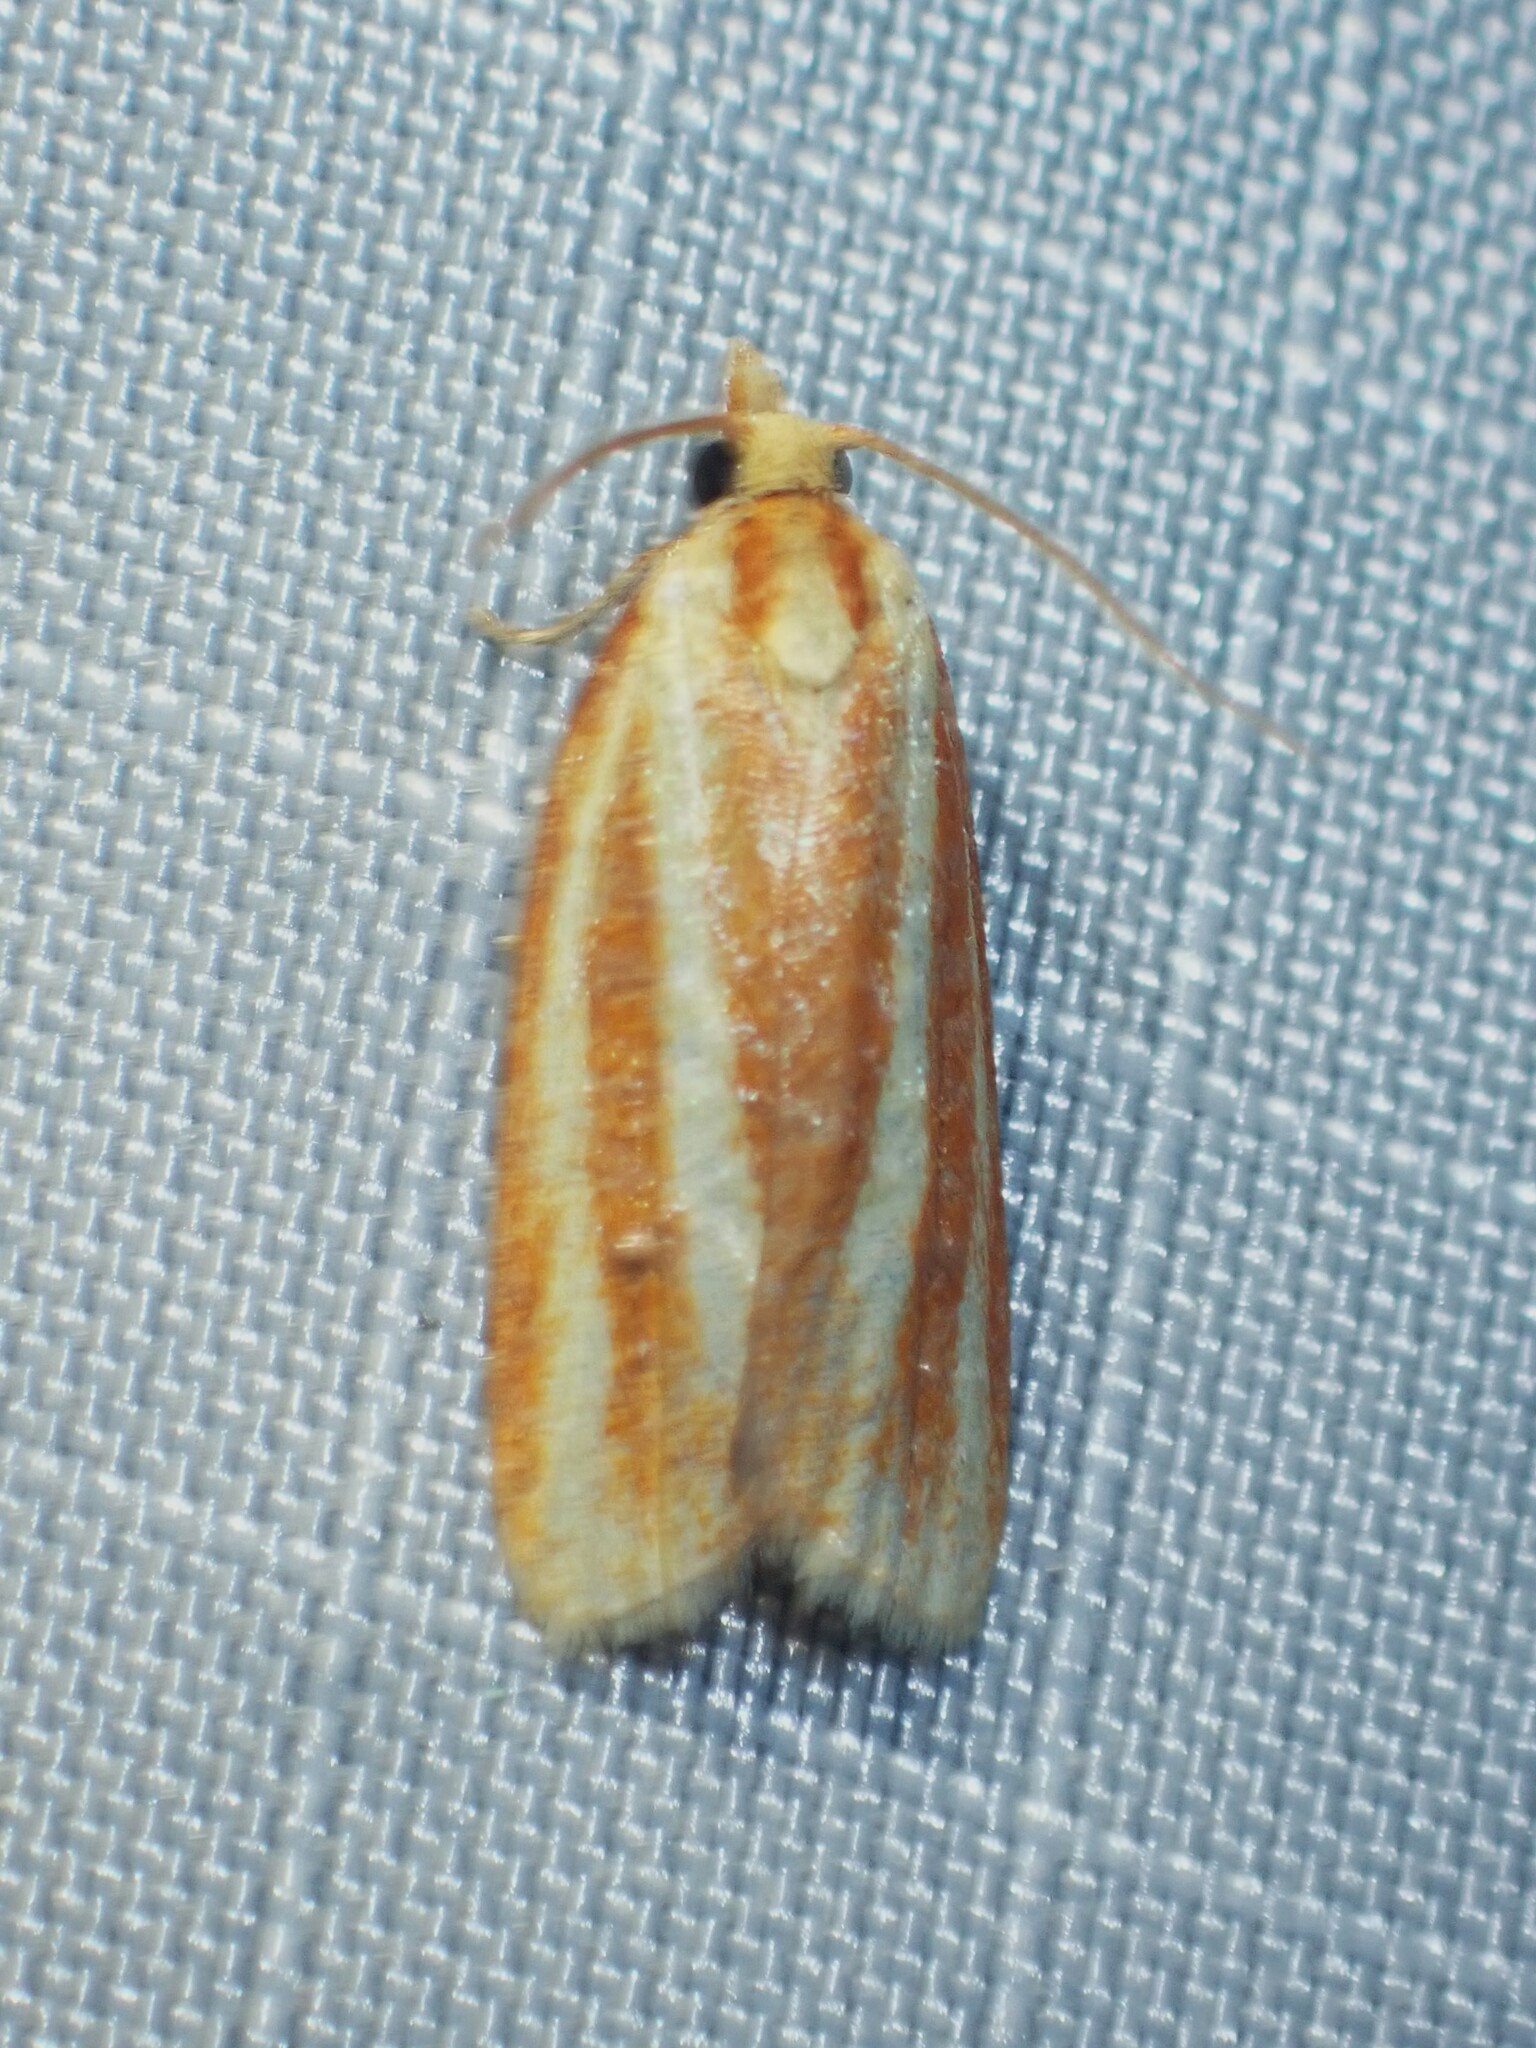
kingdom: Animalia
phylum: Arthropoda
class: Insecta
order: Lepidoptera
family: Tortricidae
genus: Sparganothis
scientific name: Sparganothis tristriata
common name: Three-streaked sparganothis moth
